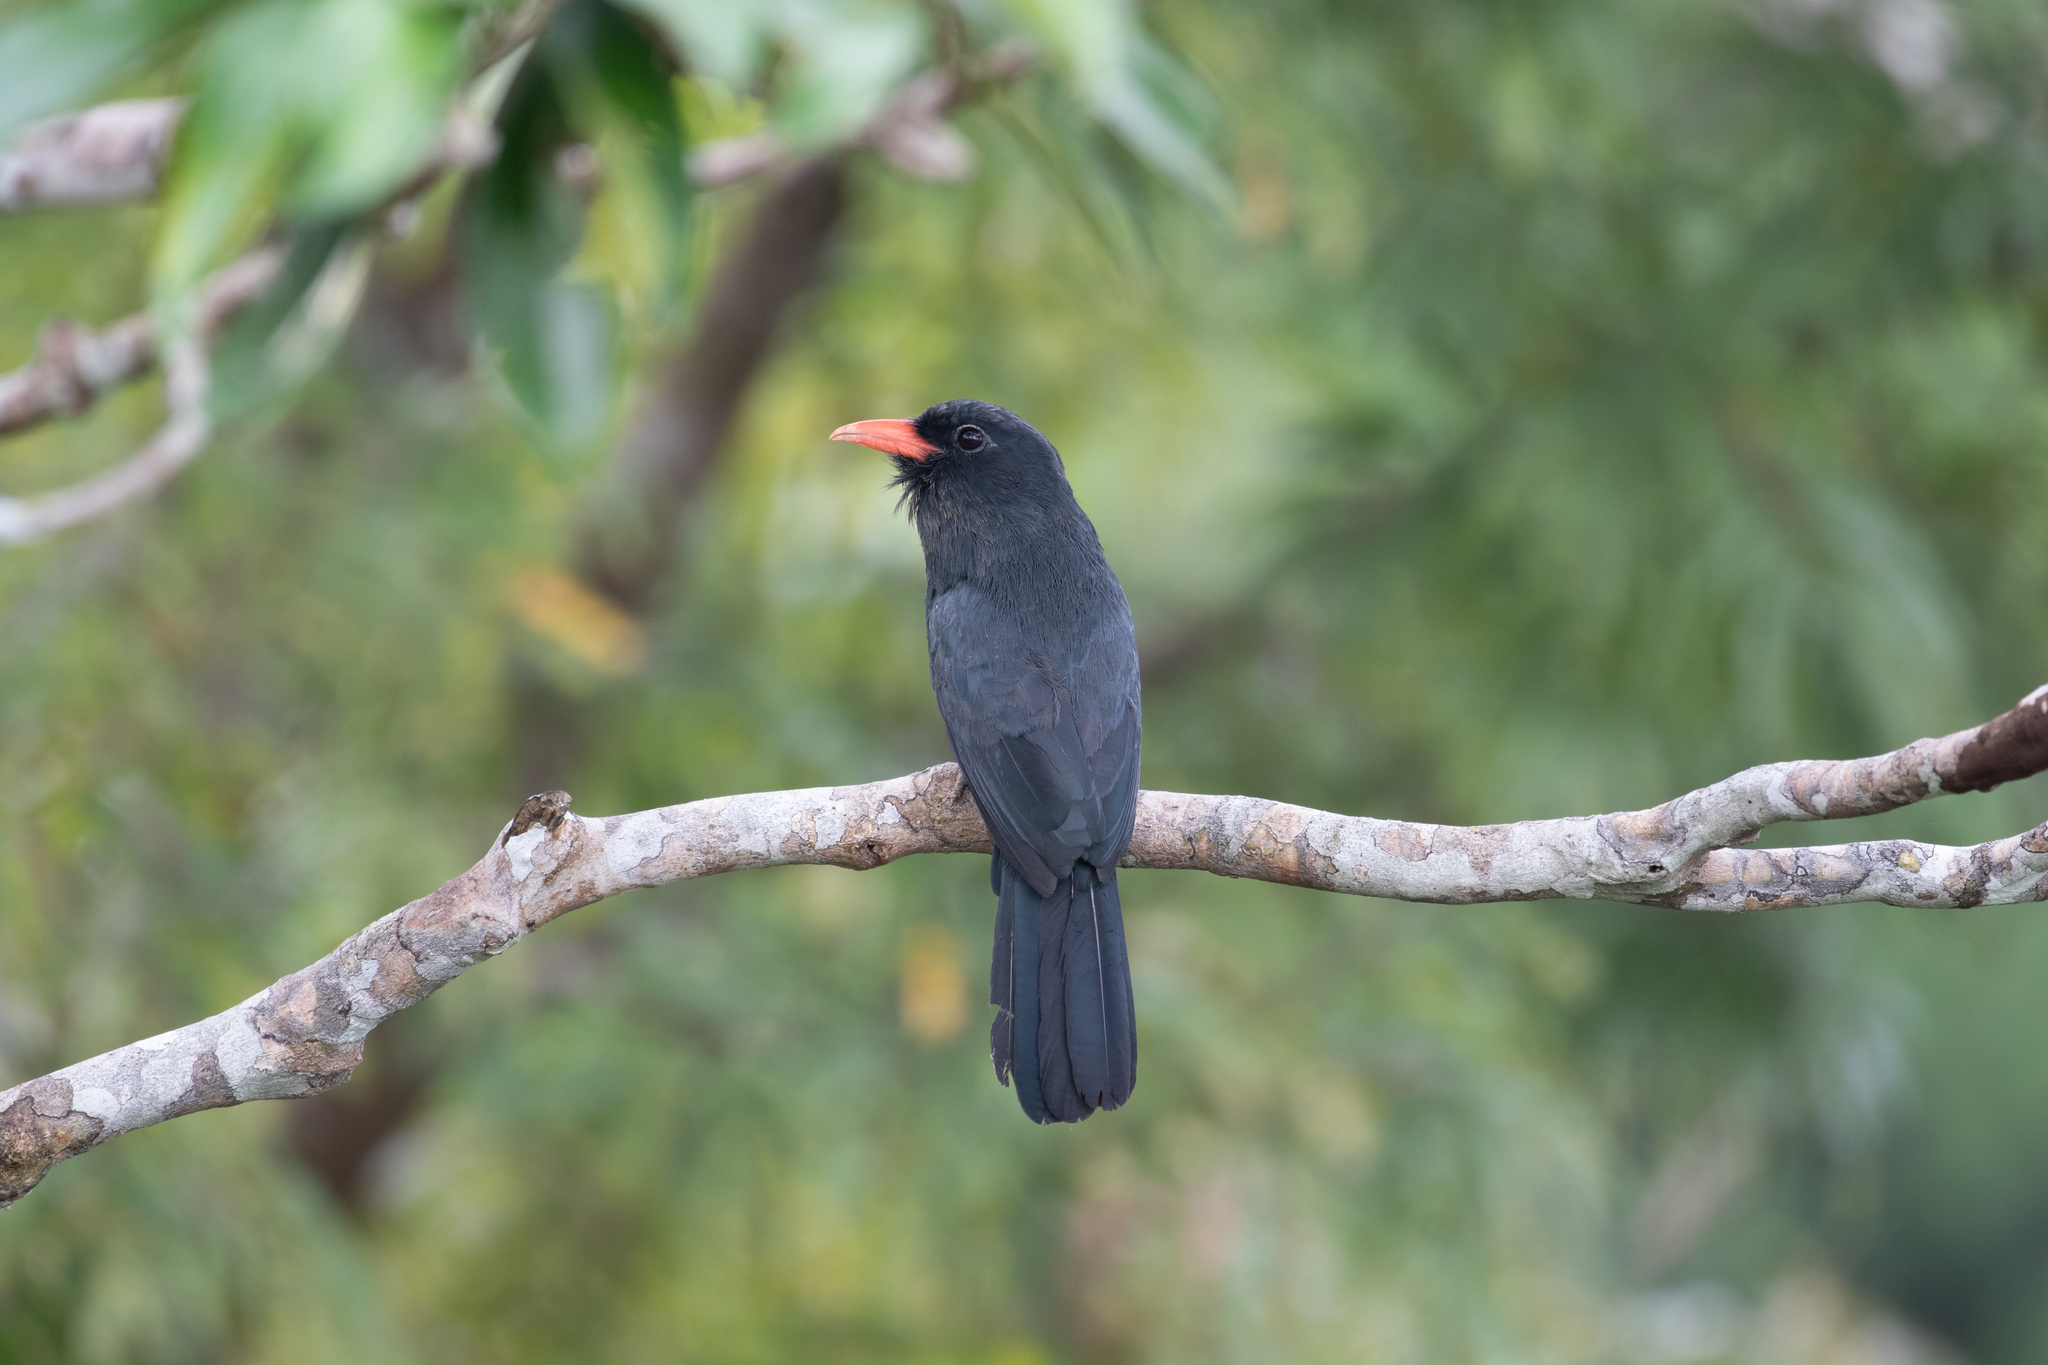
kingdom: Animalia
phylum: Chordata
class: Aves
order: Piciformes
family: Bucconidae
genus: Monasa
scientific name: Monasa nigrifrons
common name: Black-fronted nunbird
